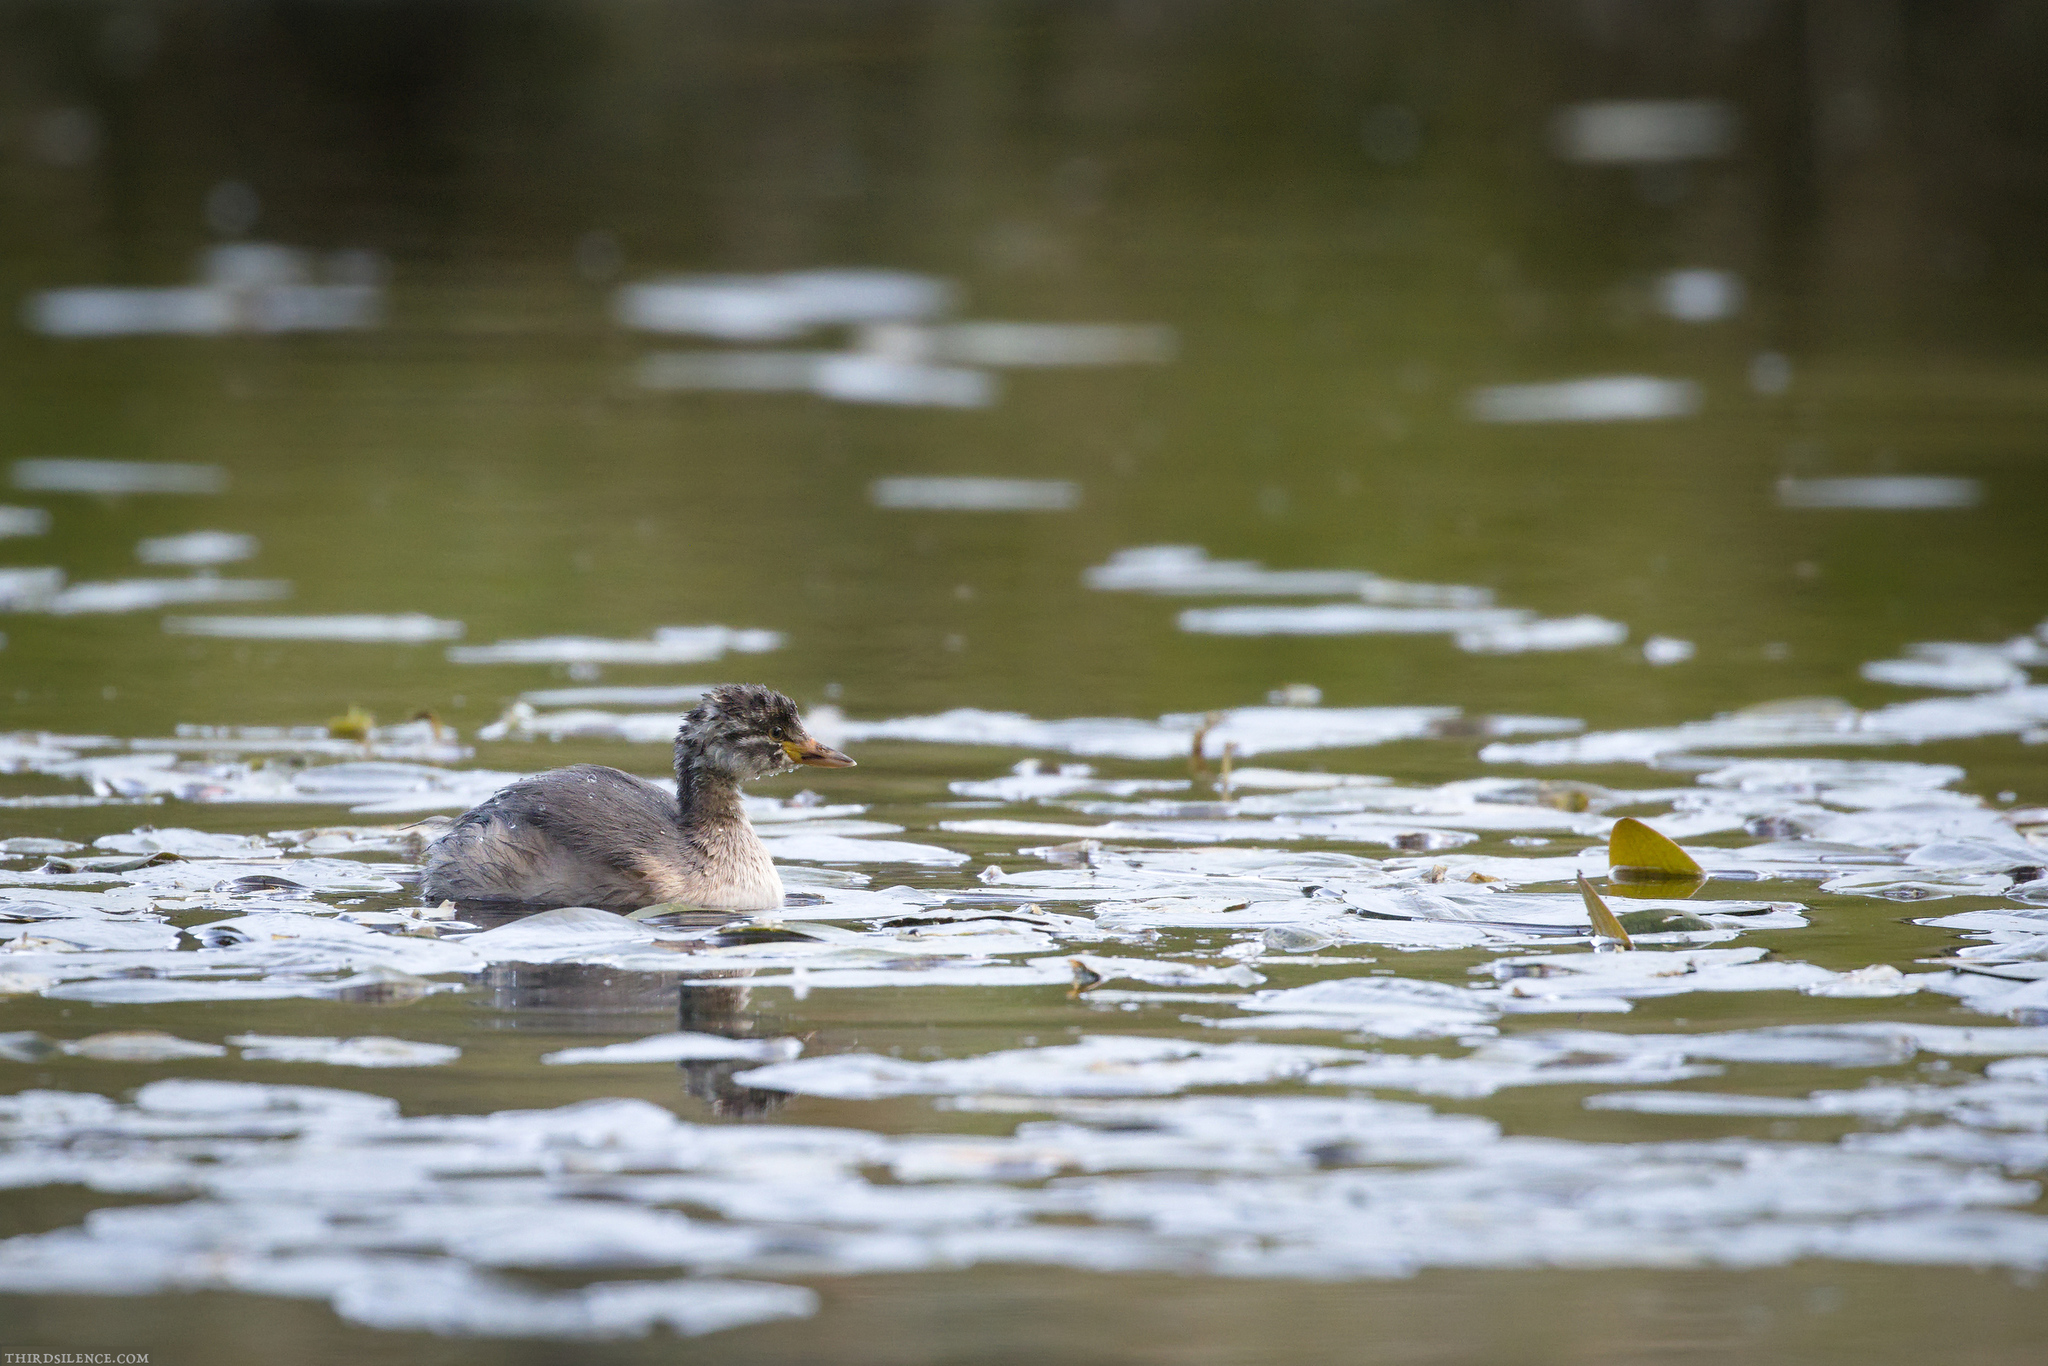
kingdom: Animalia
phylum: Chordata
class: Aves
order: Podicipediformes
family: Podicipedidae
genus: Tachybaptus
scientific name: Tachybaptus novaehollandiae
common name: Australasian grebe
